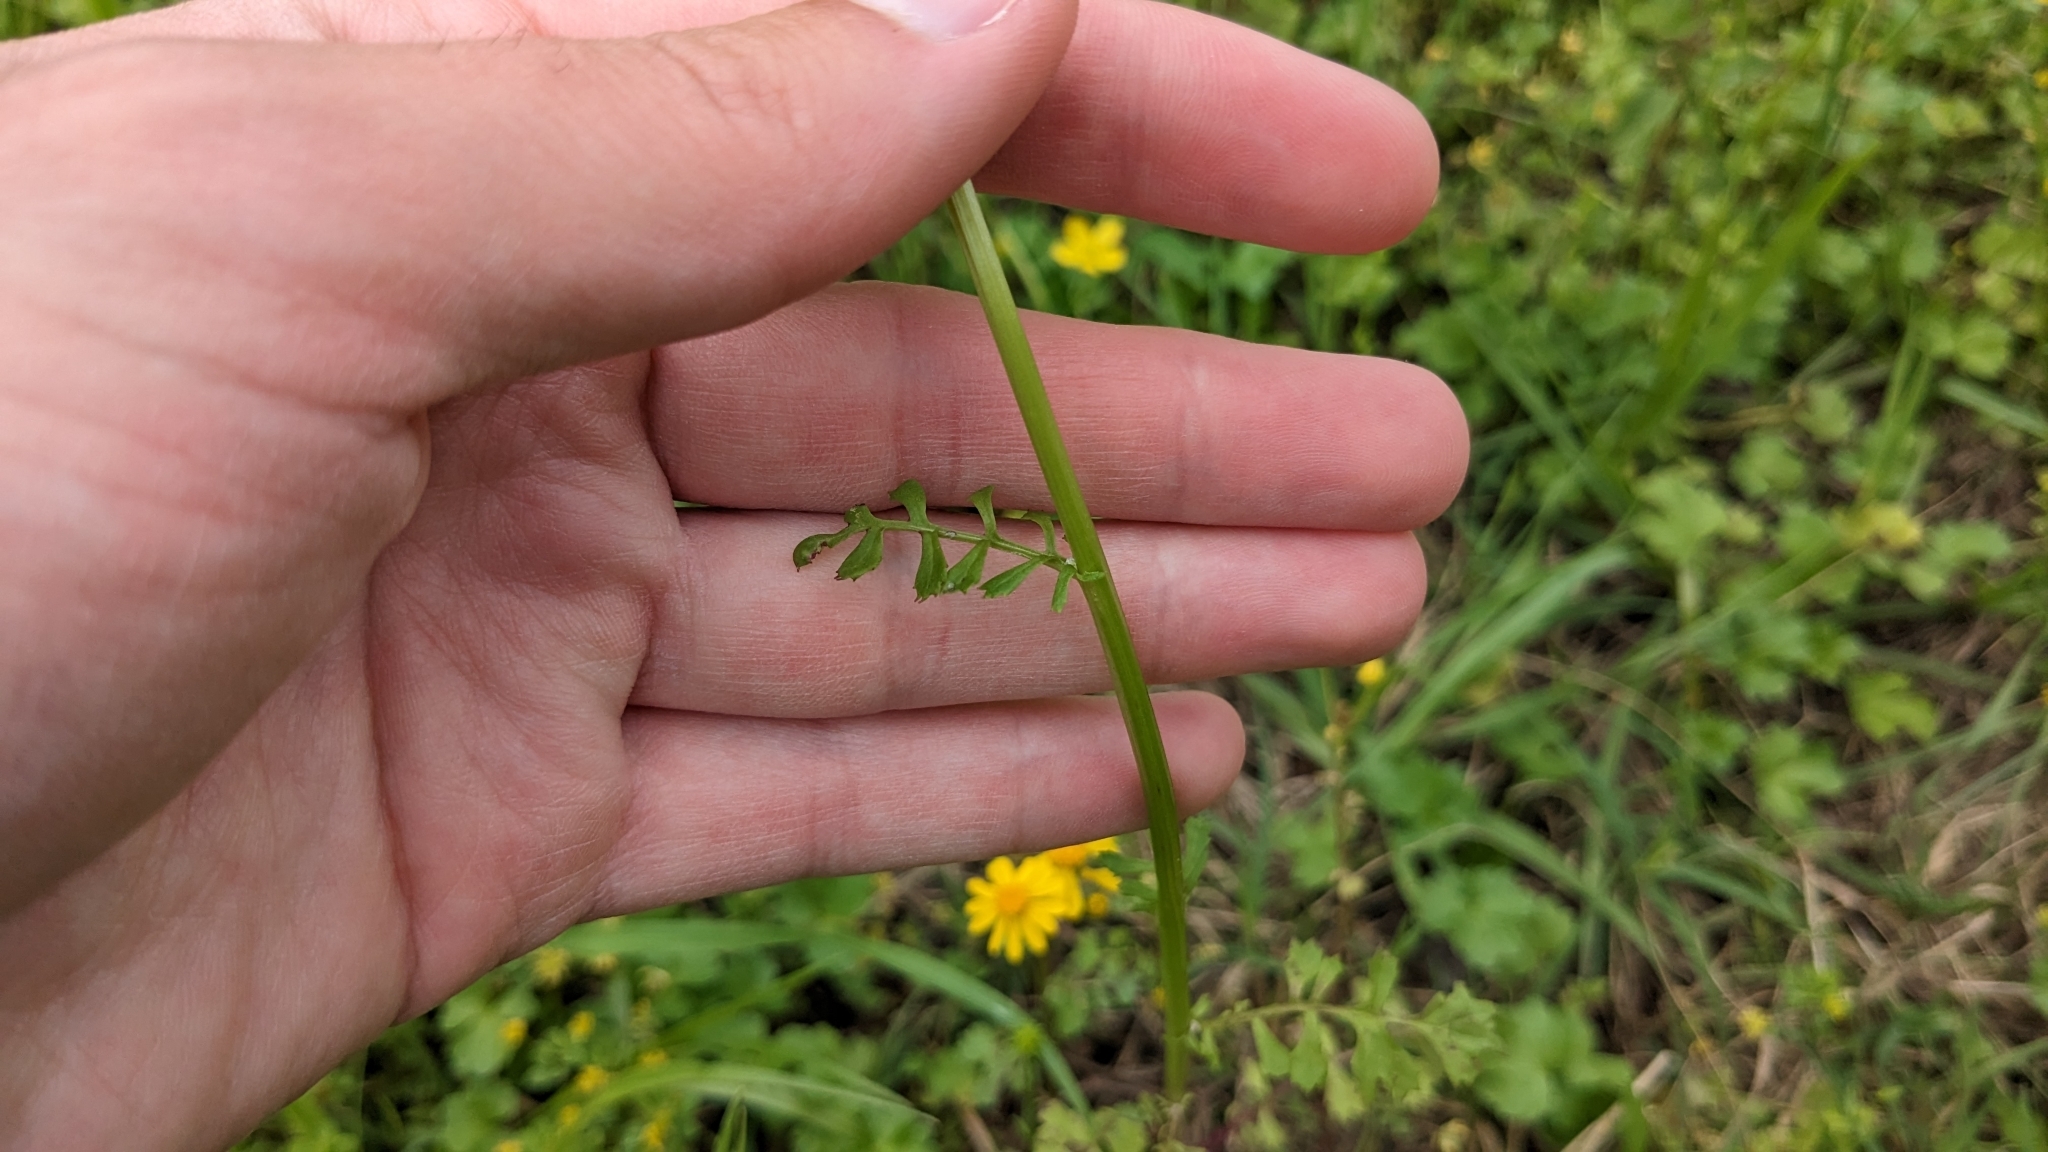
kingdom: Plantae
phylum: Tracheophyta
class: Magnoliopsida
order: Asterales
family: Asteraceae
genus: Packera
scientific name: Packera glabella
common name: Butterweed
